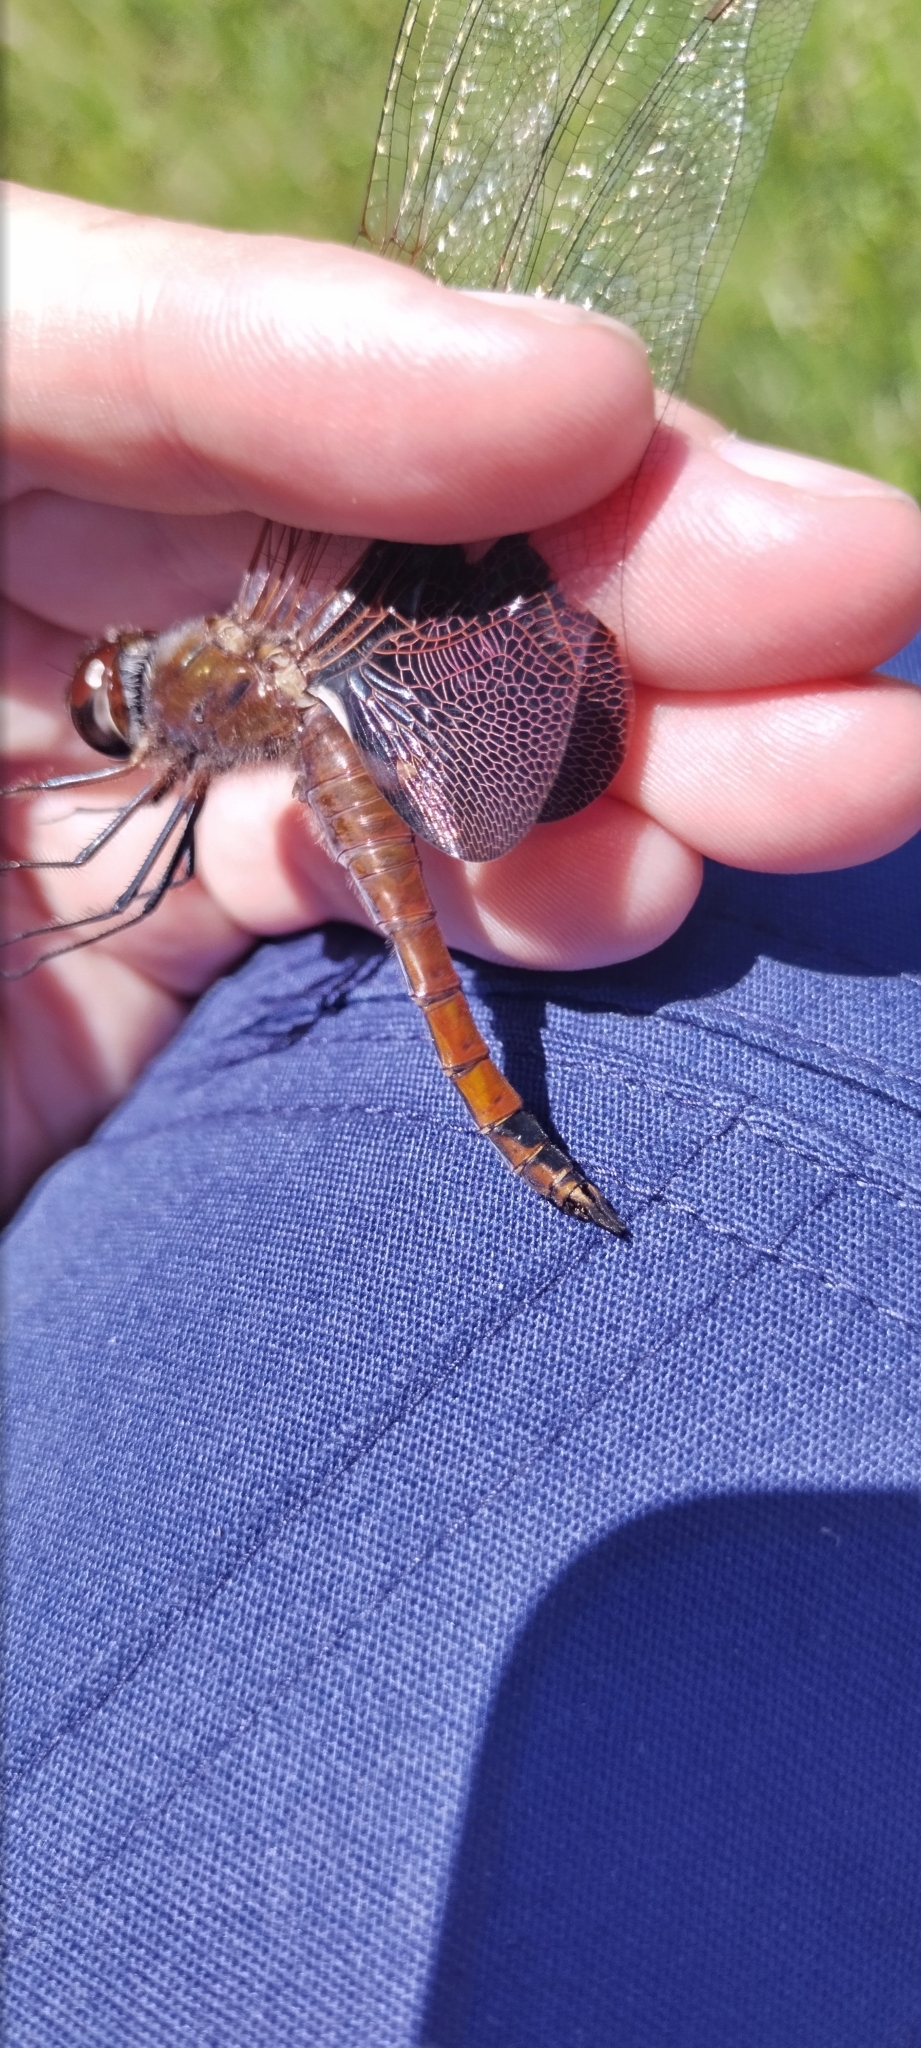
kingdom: Animalia
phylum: Arthropoda
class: Insecta
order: Odonata
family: Libellulidae
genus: Tramea
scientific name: Tramea carolina
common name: Carolina saddlebags
